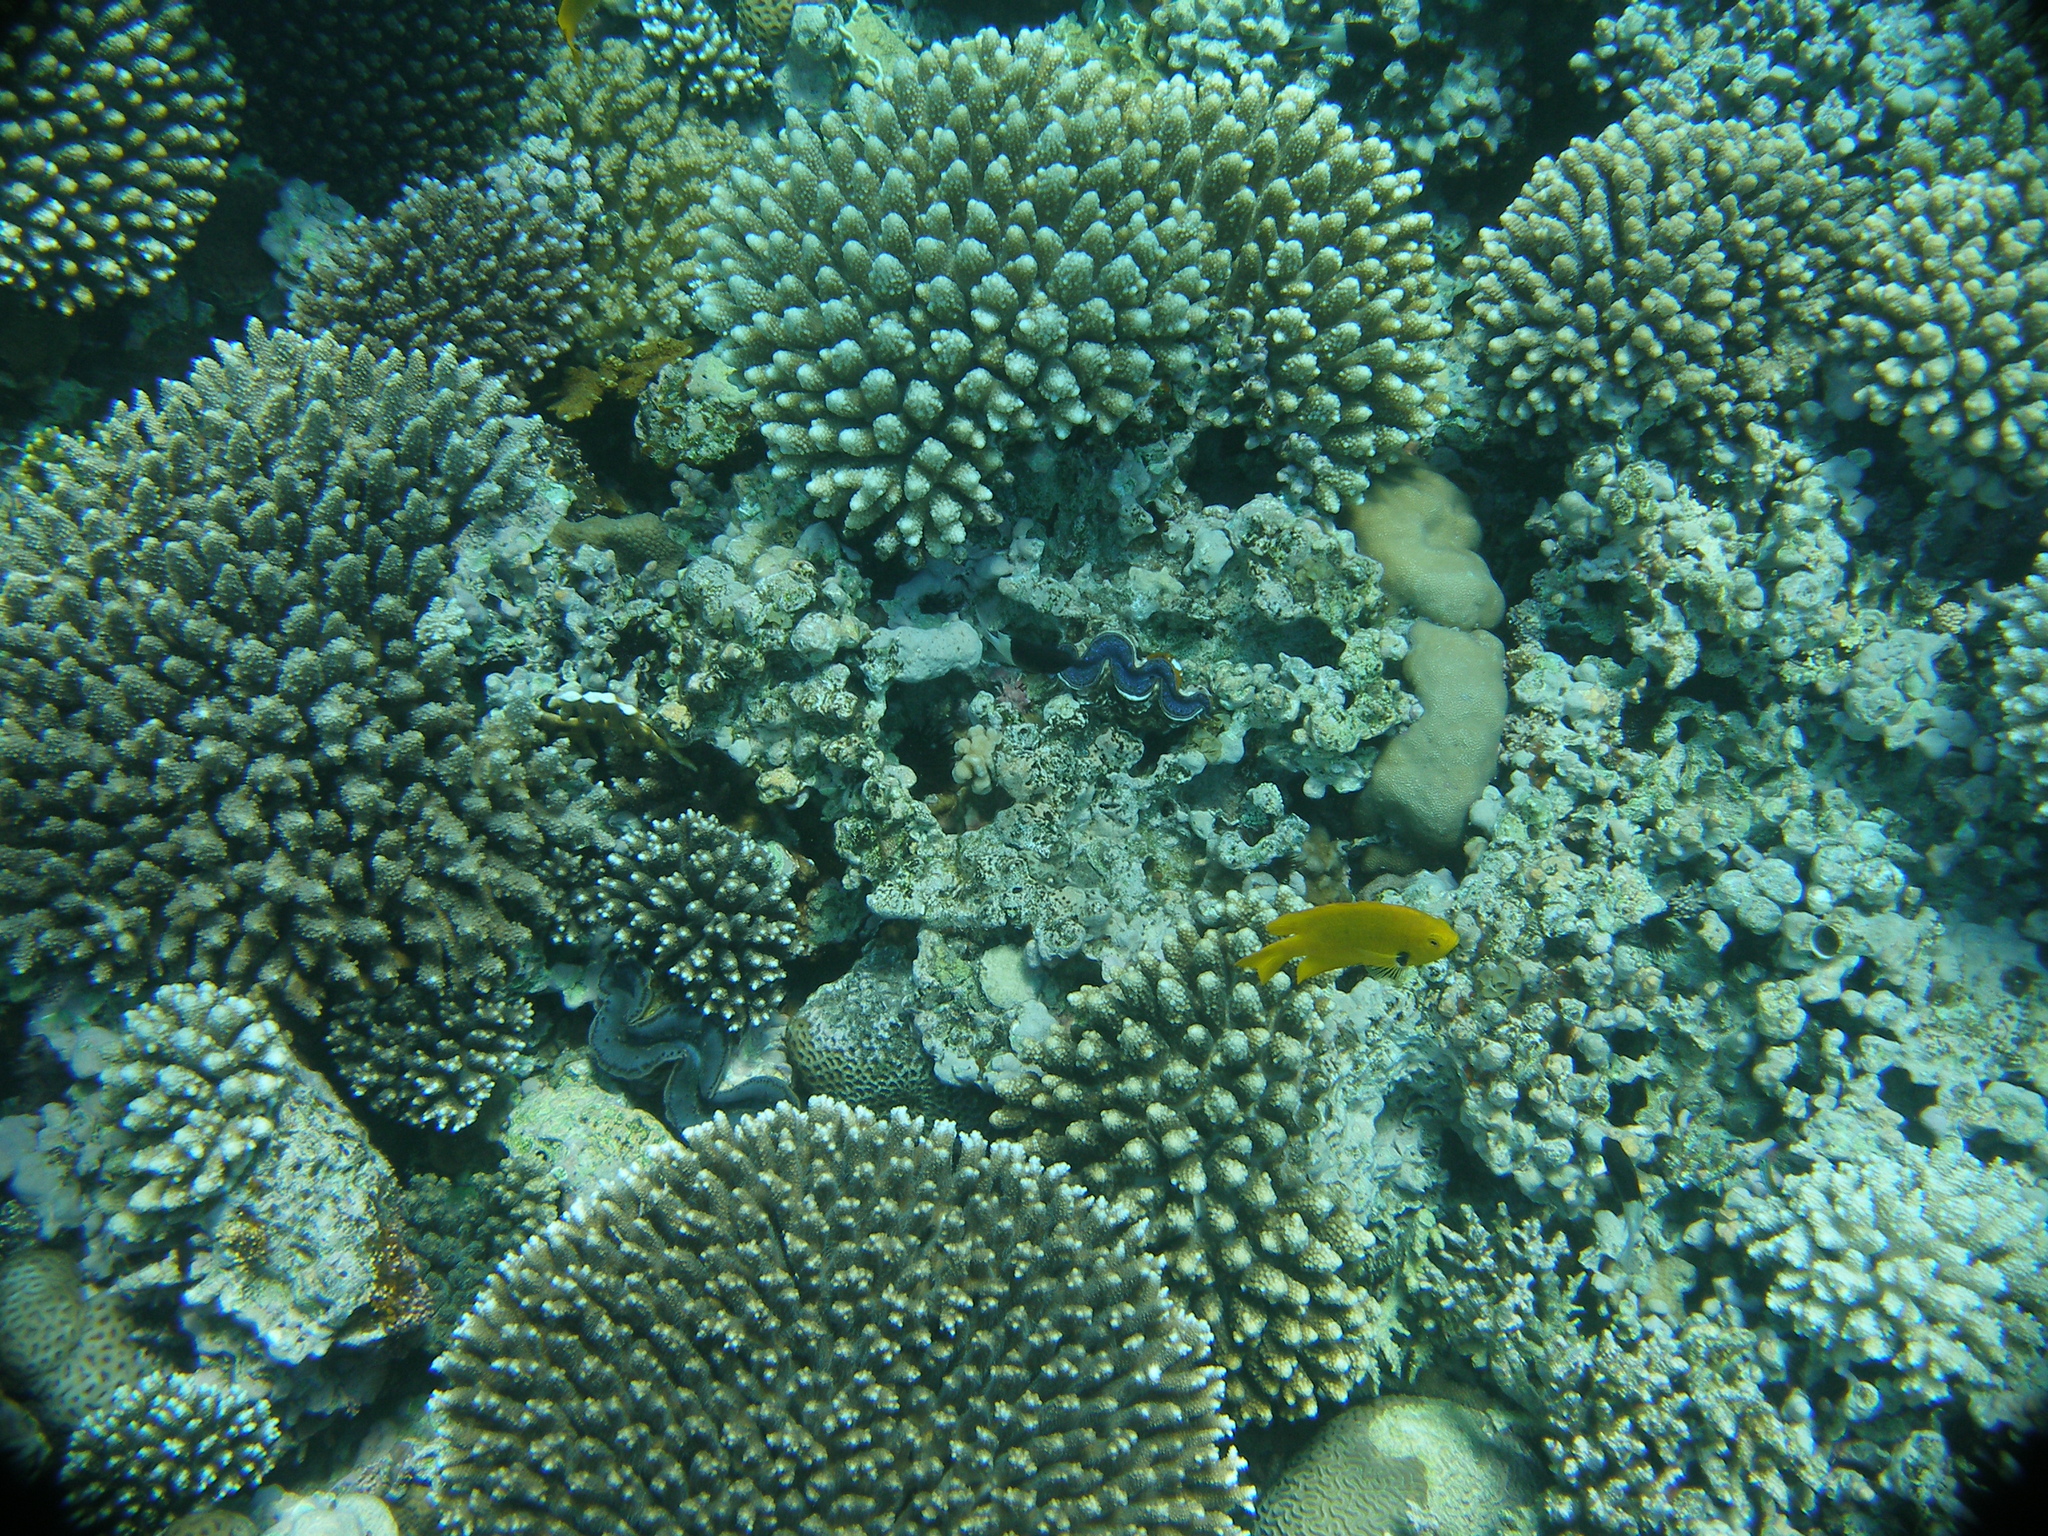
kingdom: Animalia
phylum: Chordata
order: Perciformes
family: Pomacentridae
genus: Pomacentrus
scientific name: Pomacentrus sulfureus
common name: Sulfur damsel
